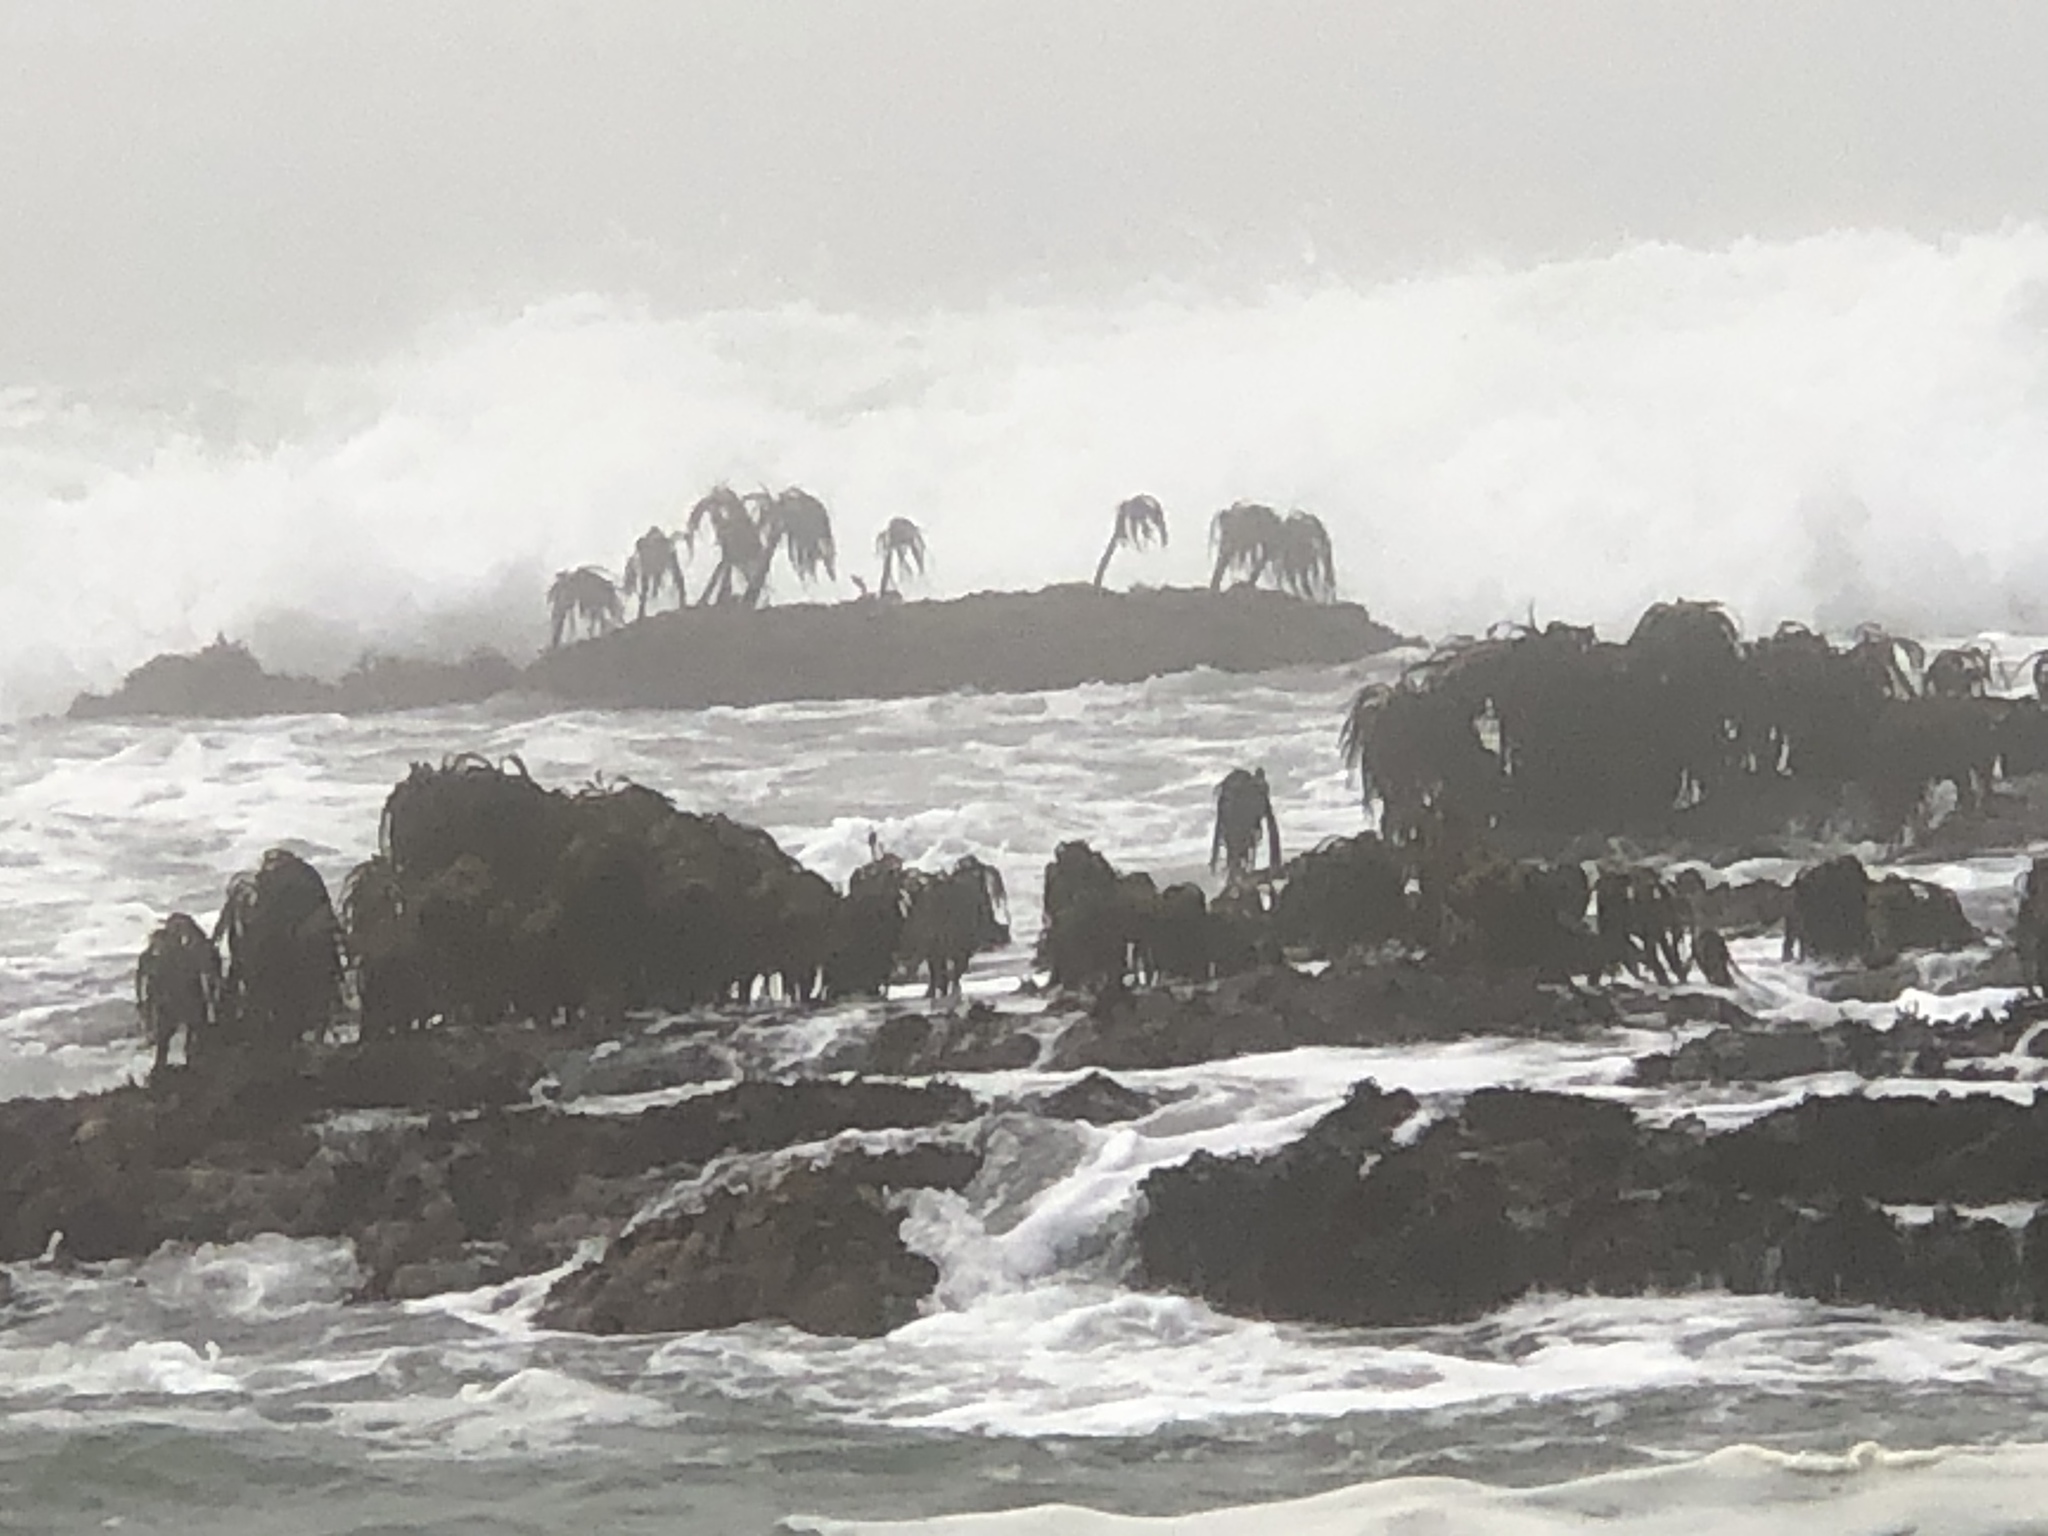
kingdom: Chromista
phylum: Ochrophyta
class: Phaeophyceae
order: Laminariales
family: Laminariaceae
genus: Postelsia
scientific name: Postelsia palmiformis
